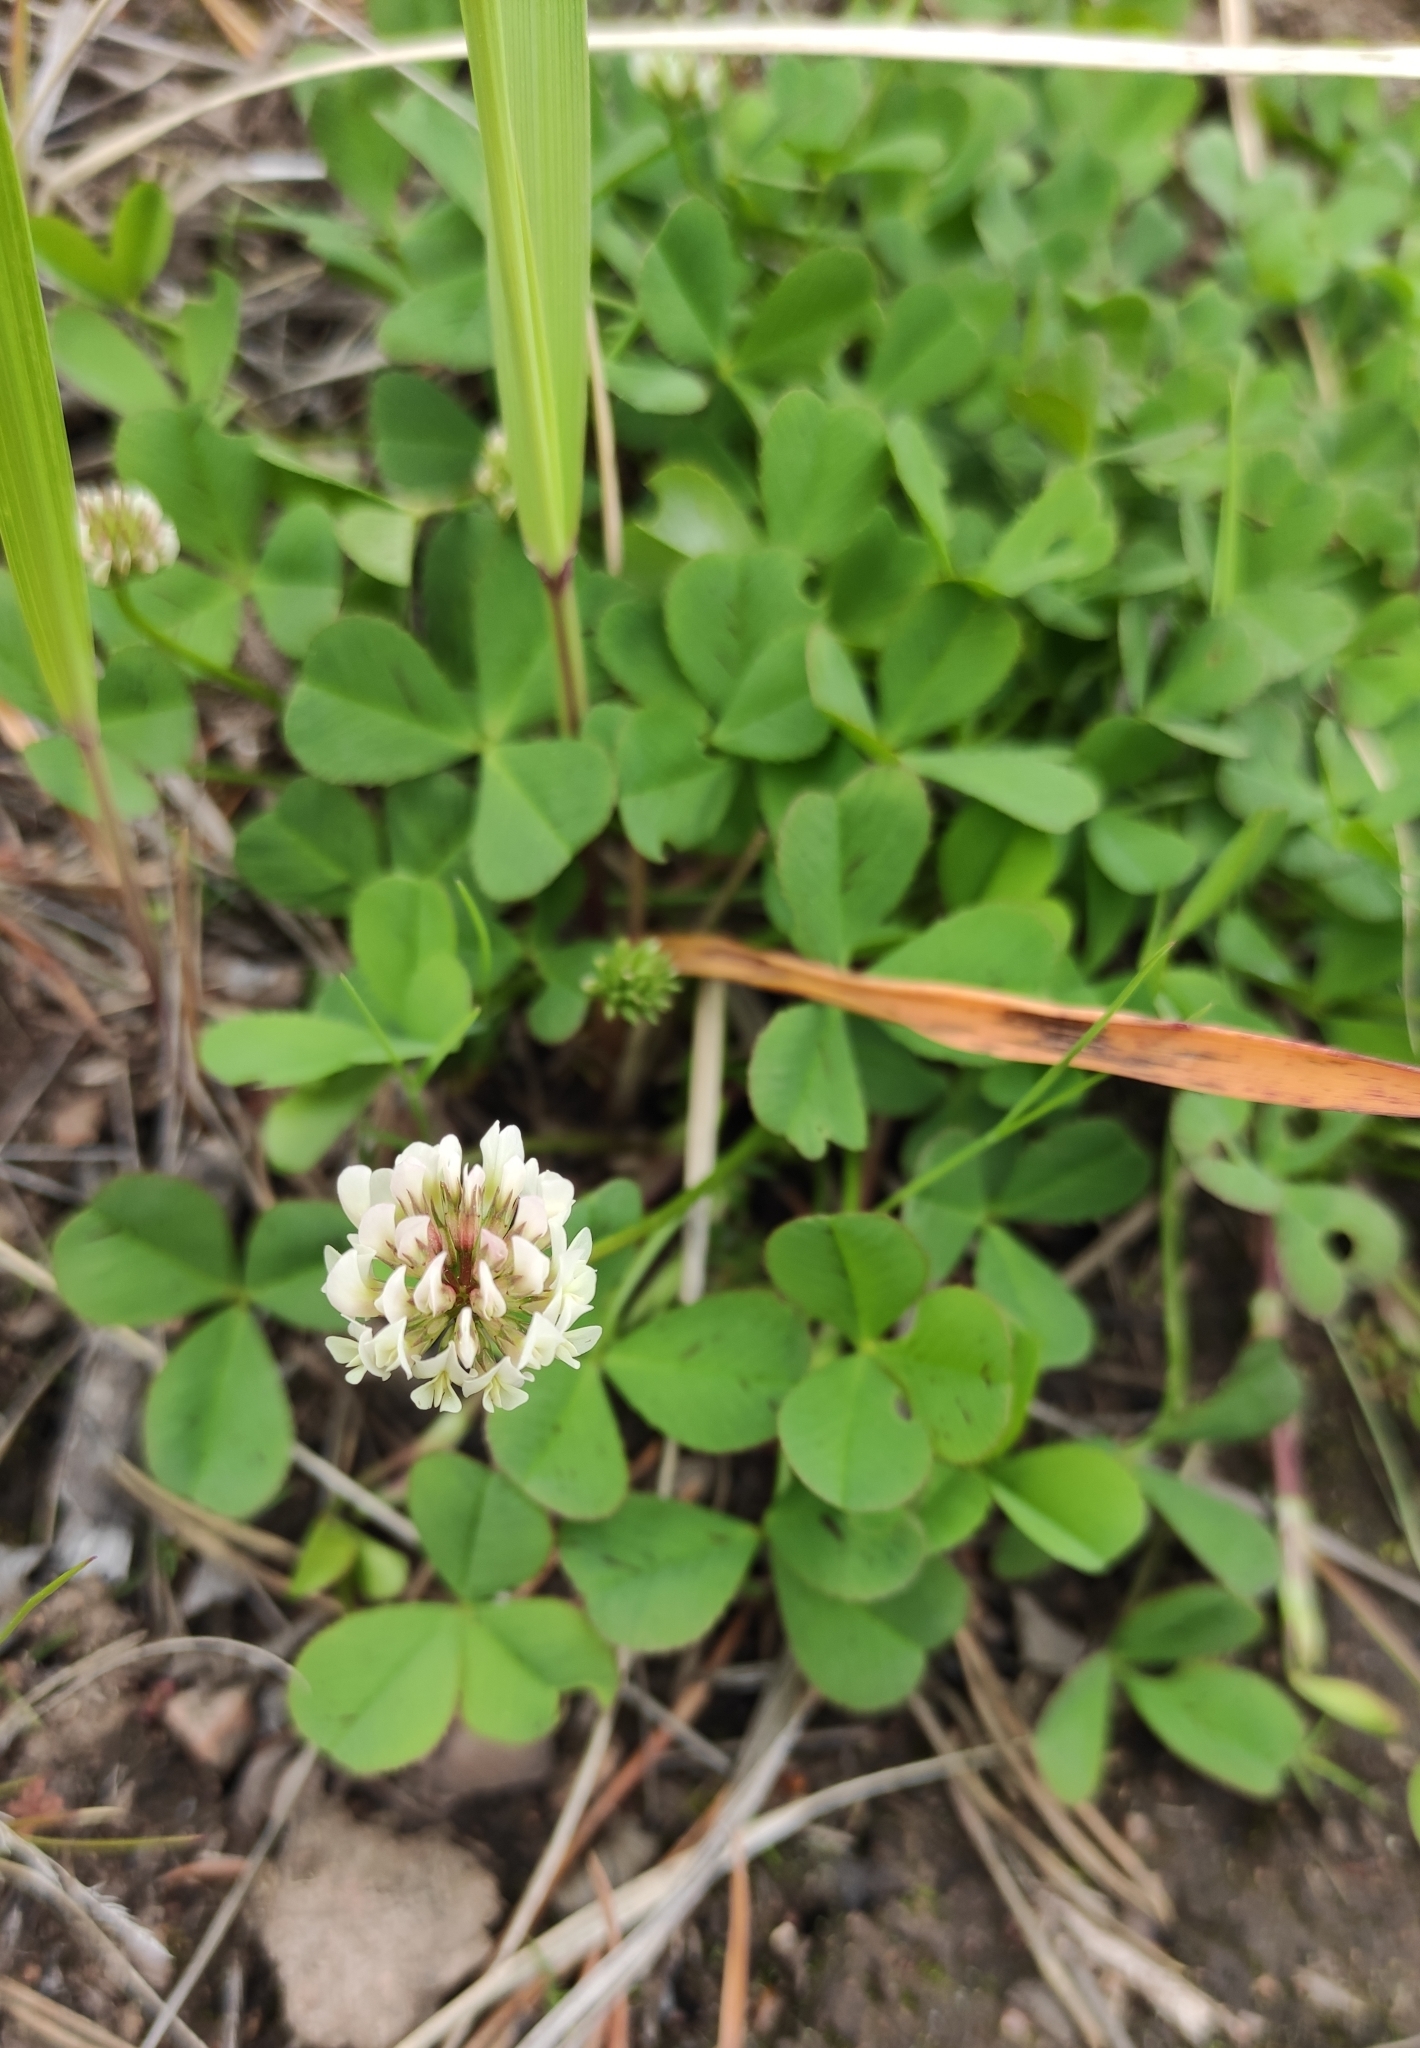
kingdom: Plantae
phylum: Tracheophyta
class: Magnoliopsida
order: Fabales
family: Fabaceae
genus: Trifolium
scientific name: Trifolium repens
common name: White clover
